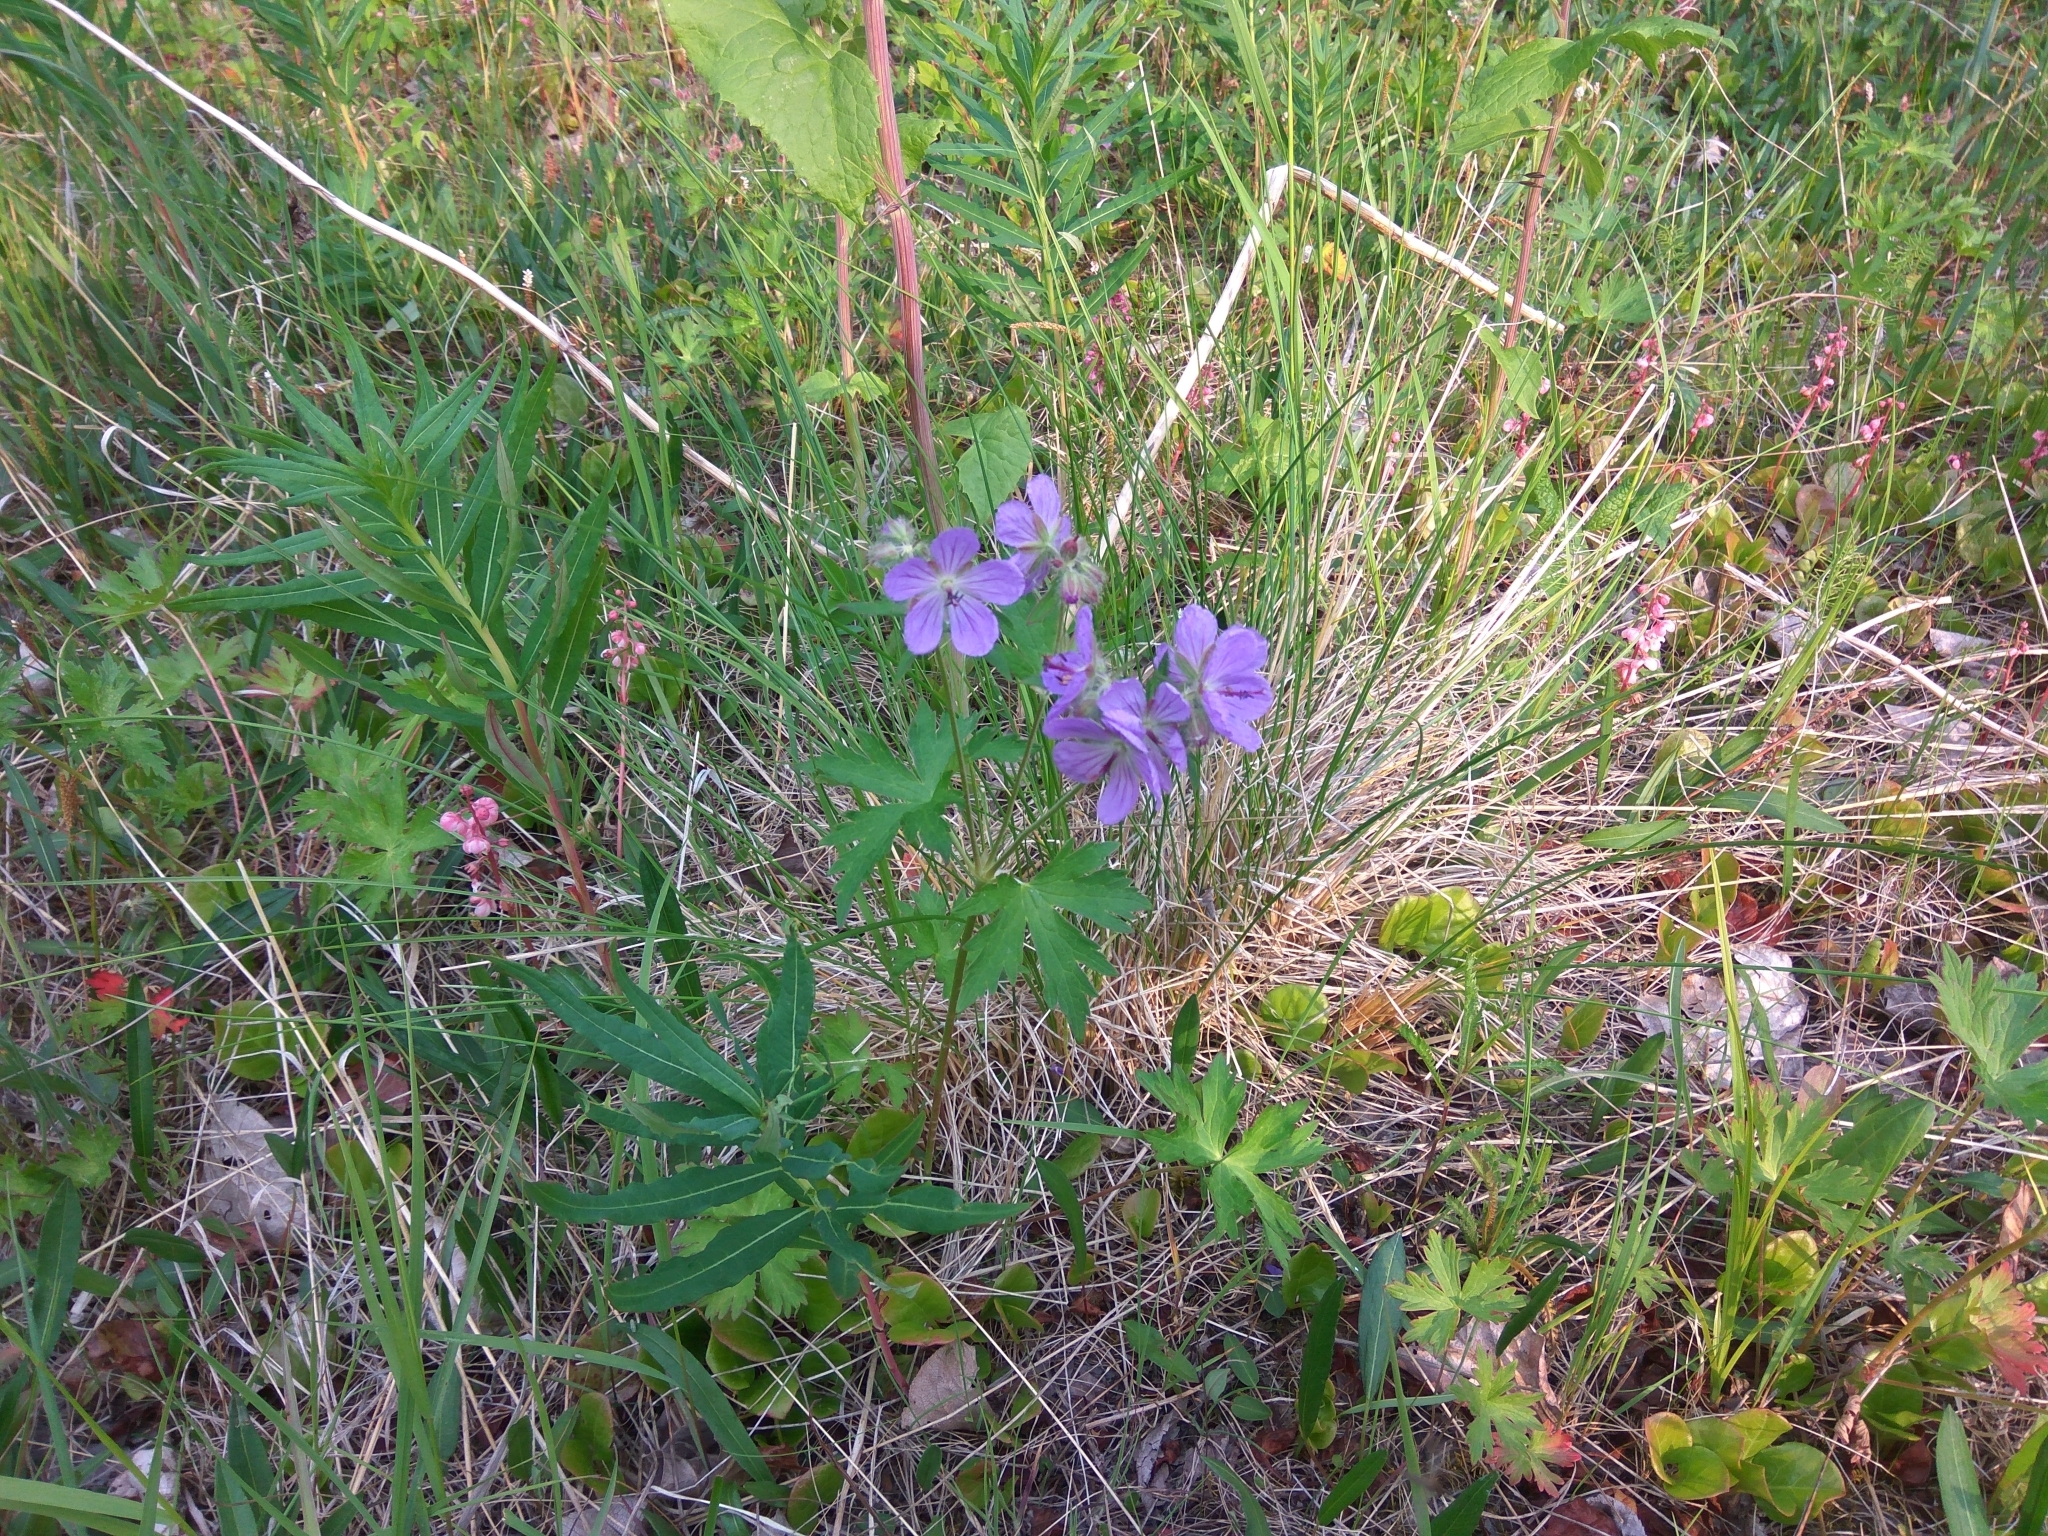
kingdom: Plantae
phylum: Tracheophyta
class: Magnoliopsida
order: Geraniales
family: Geraniaceae
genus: Geranium
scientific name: Geranium erianthum
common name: Northern crane's-bill
